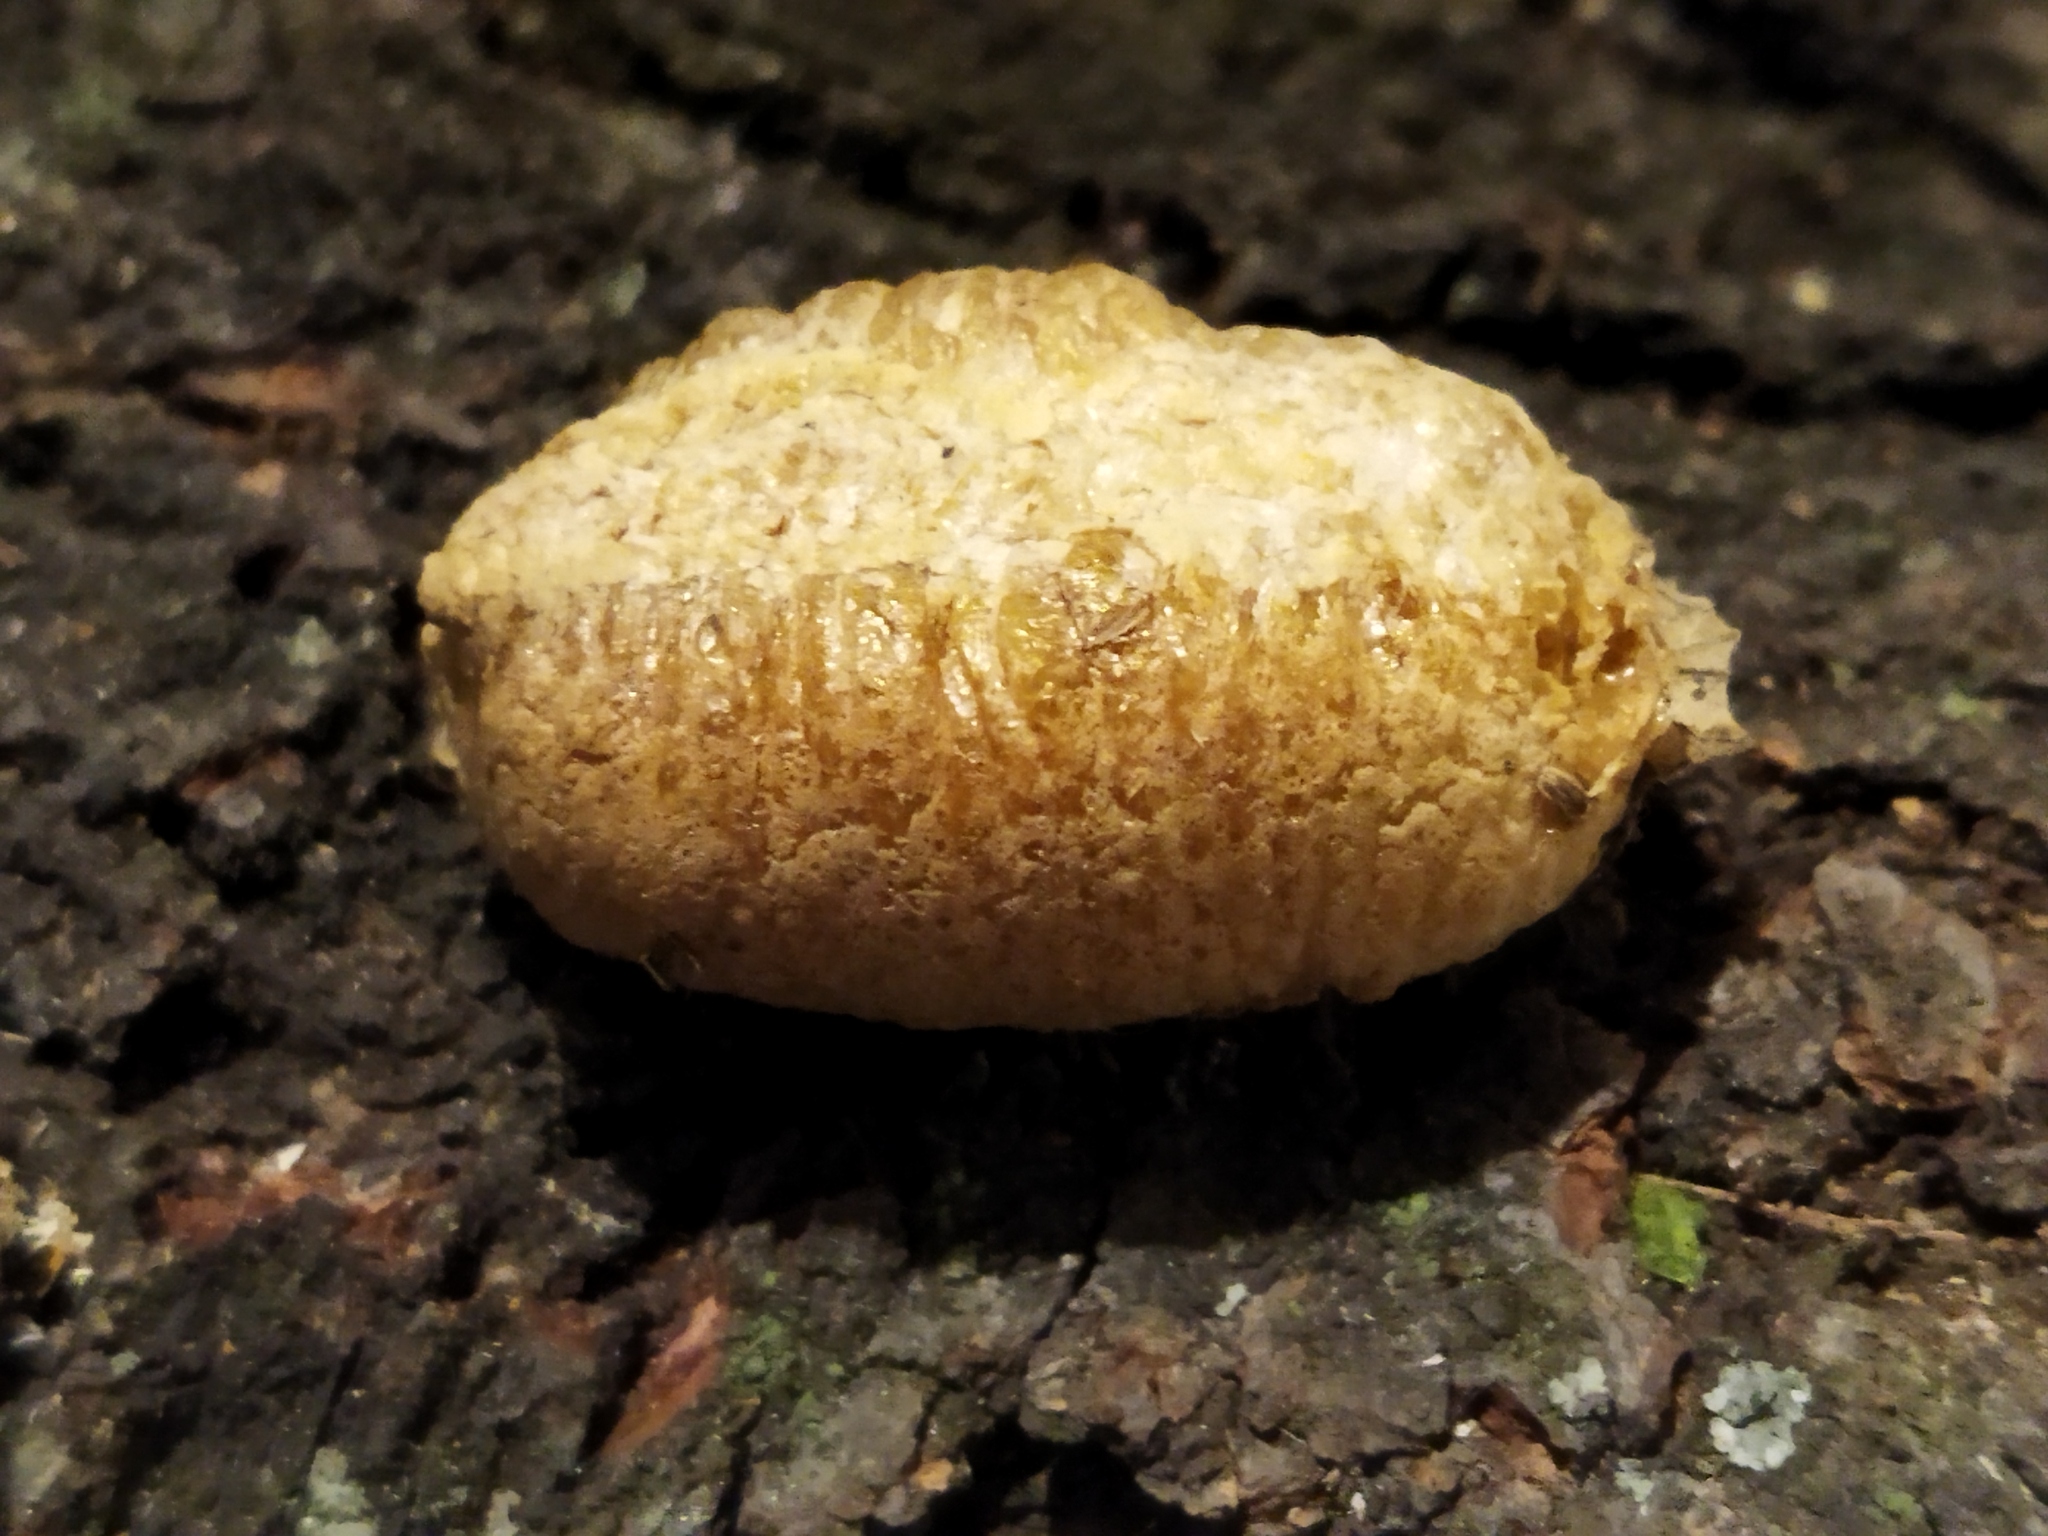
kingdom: Animalia
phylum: Arthropoda
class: Insecta
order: Mantodea
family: Mantidae
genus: Mantis
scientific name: Mantis religiosa
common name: Praying mantis
